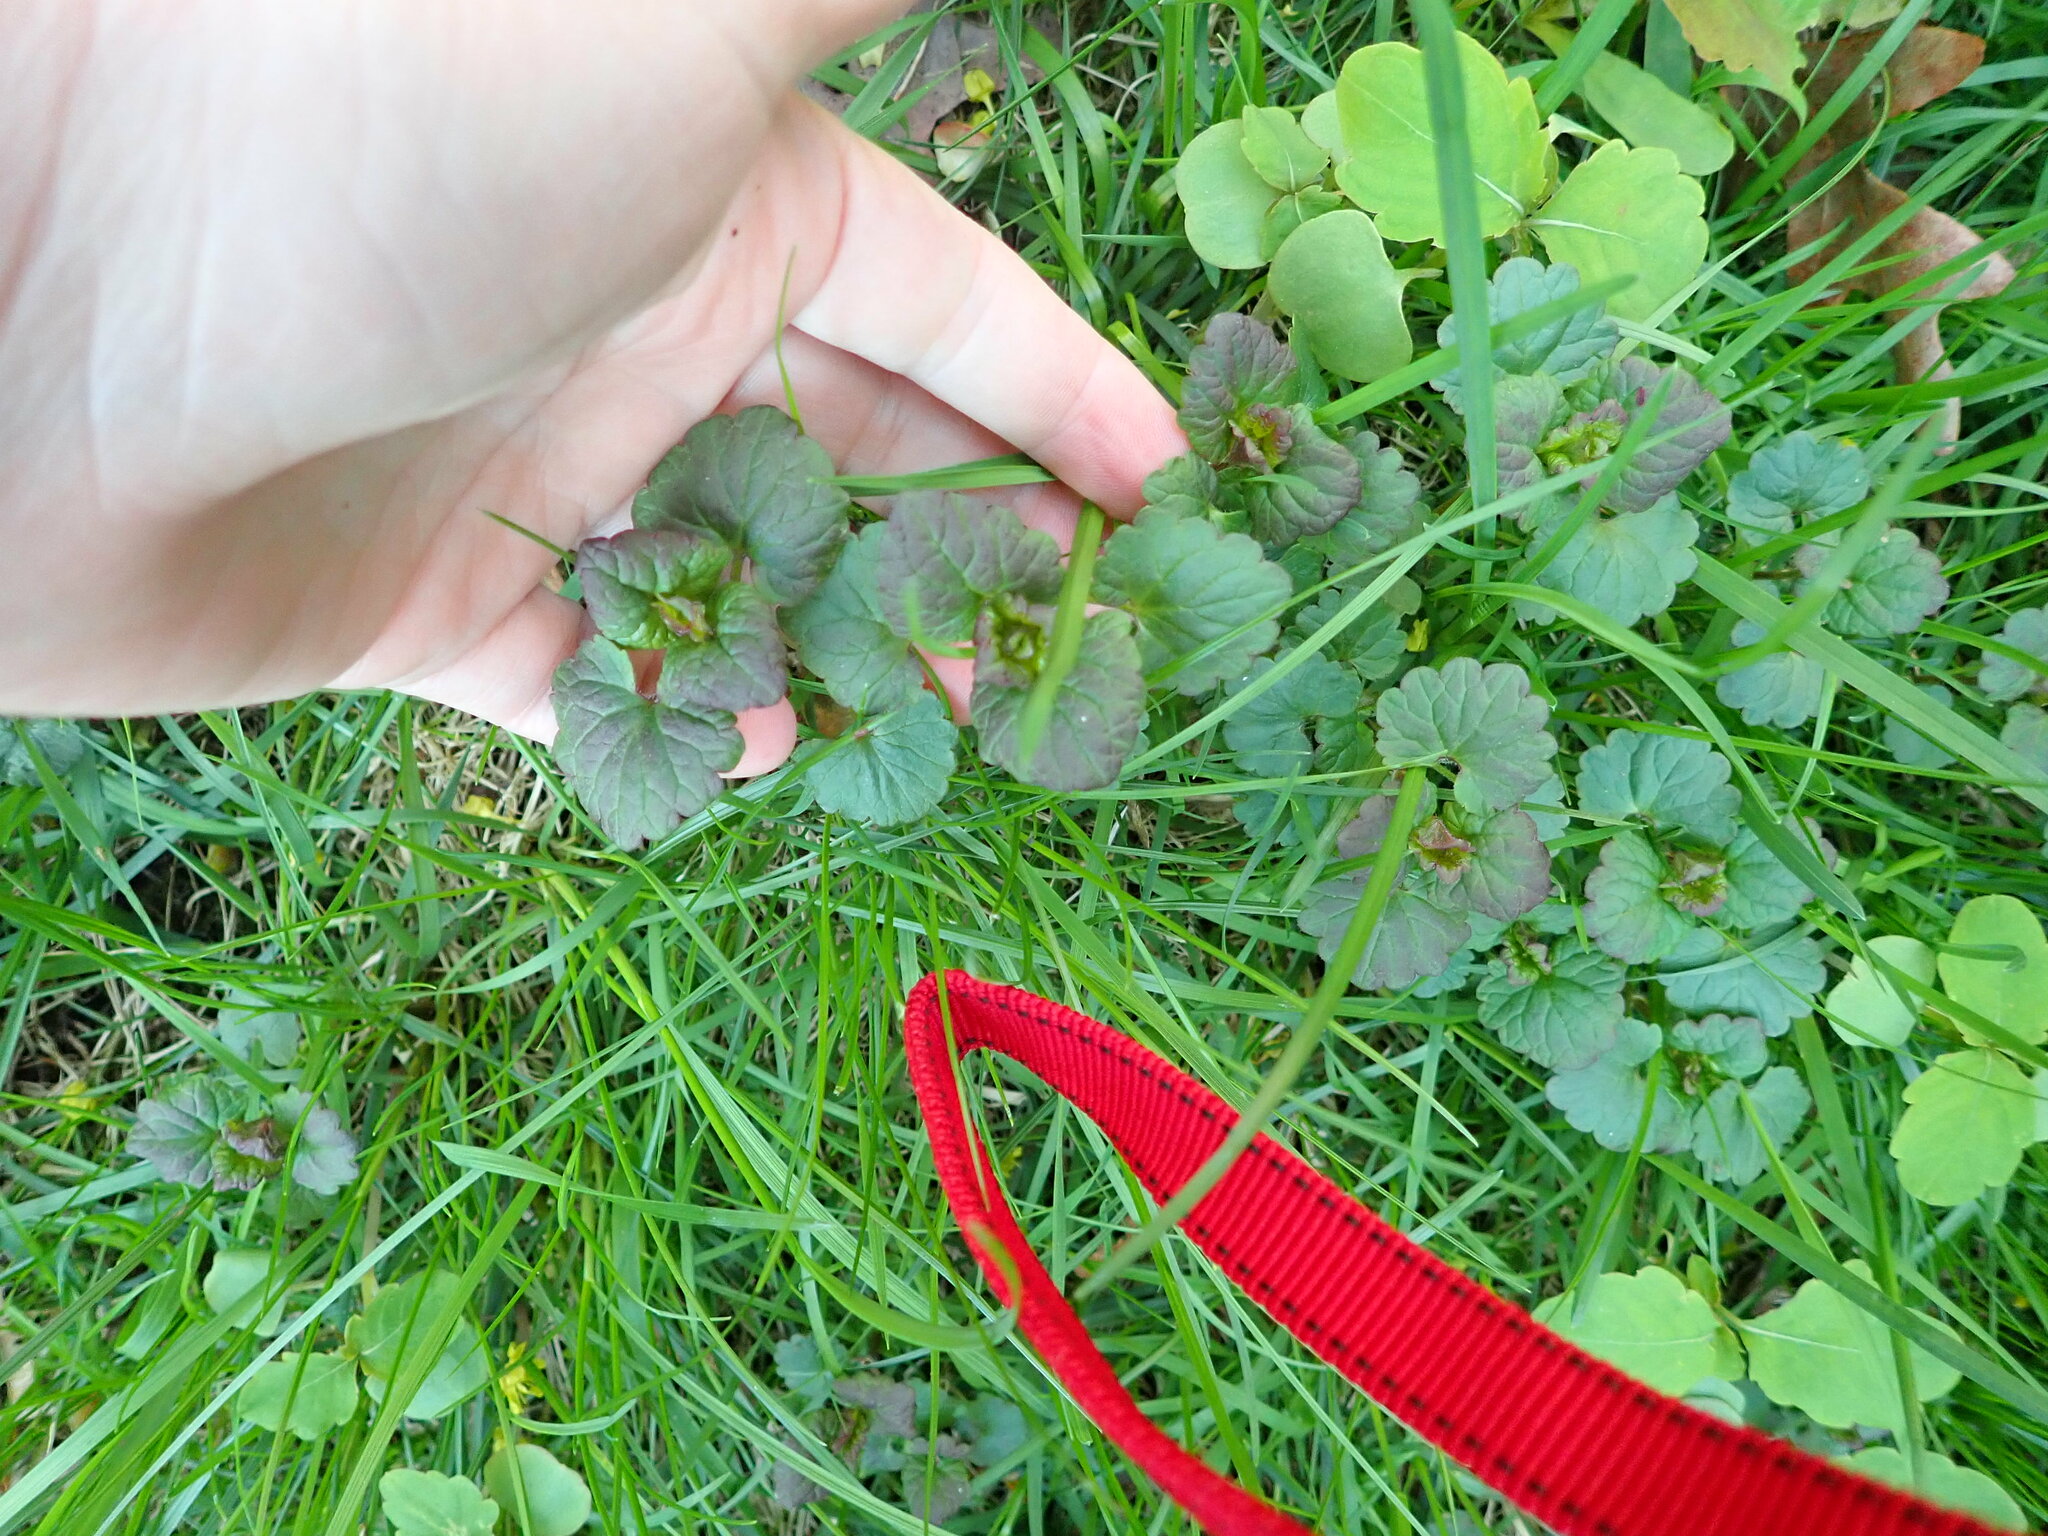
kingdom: Plantae
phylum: Tracheophyta
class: Magnoliopsida
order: Lamiales
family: Lamiaceae
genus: Glechoma
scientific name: Glechoma hederacea
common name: Ground ivy
